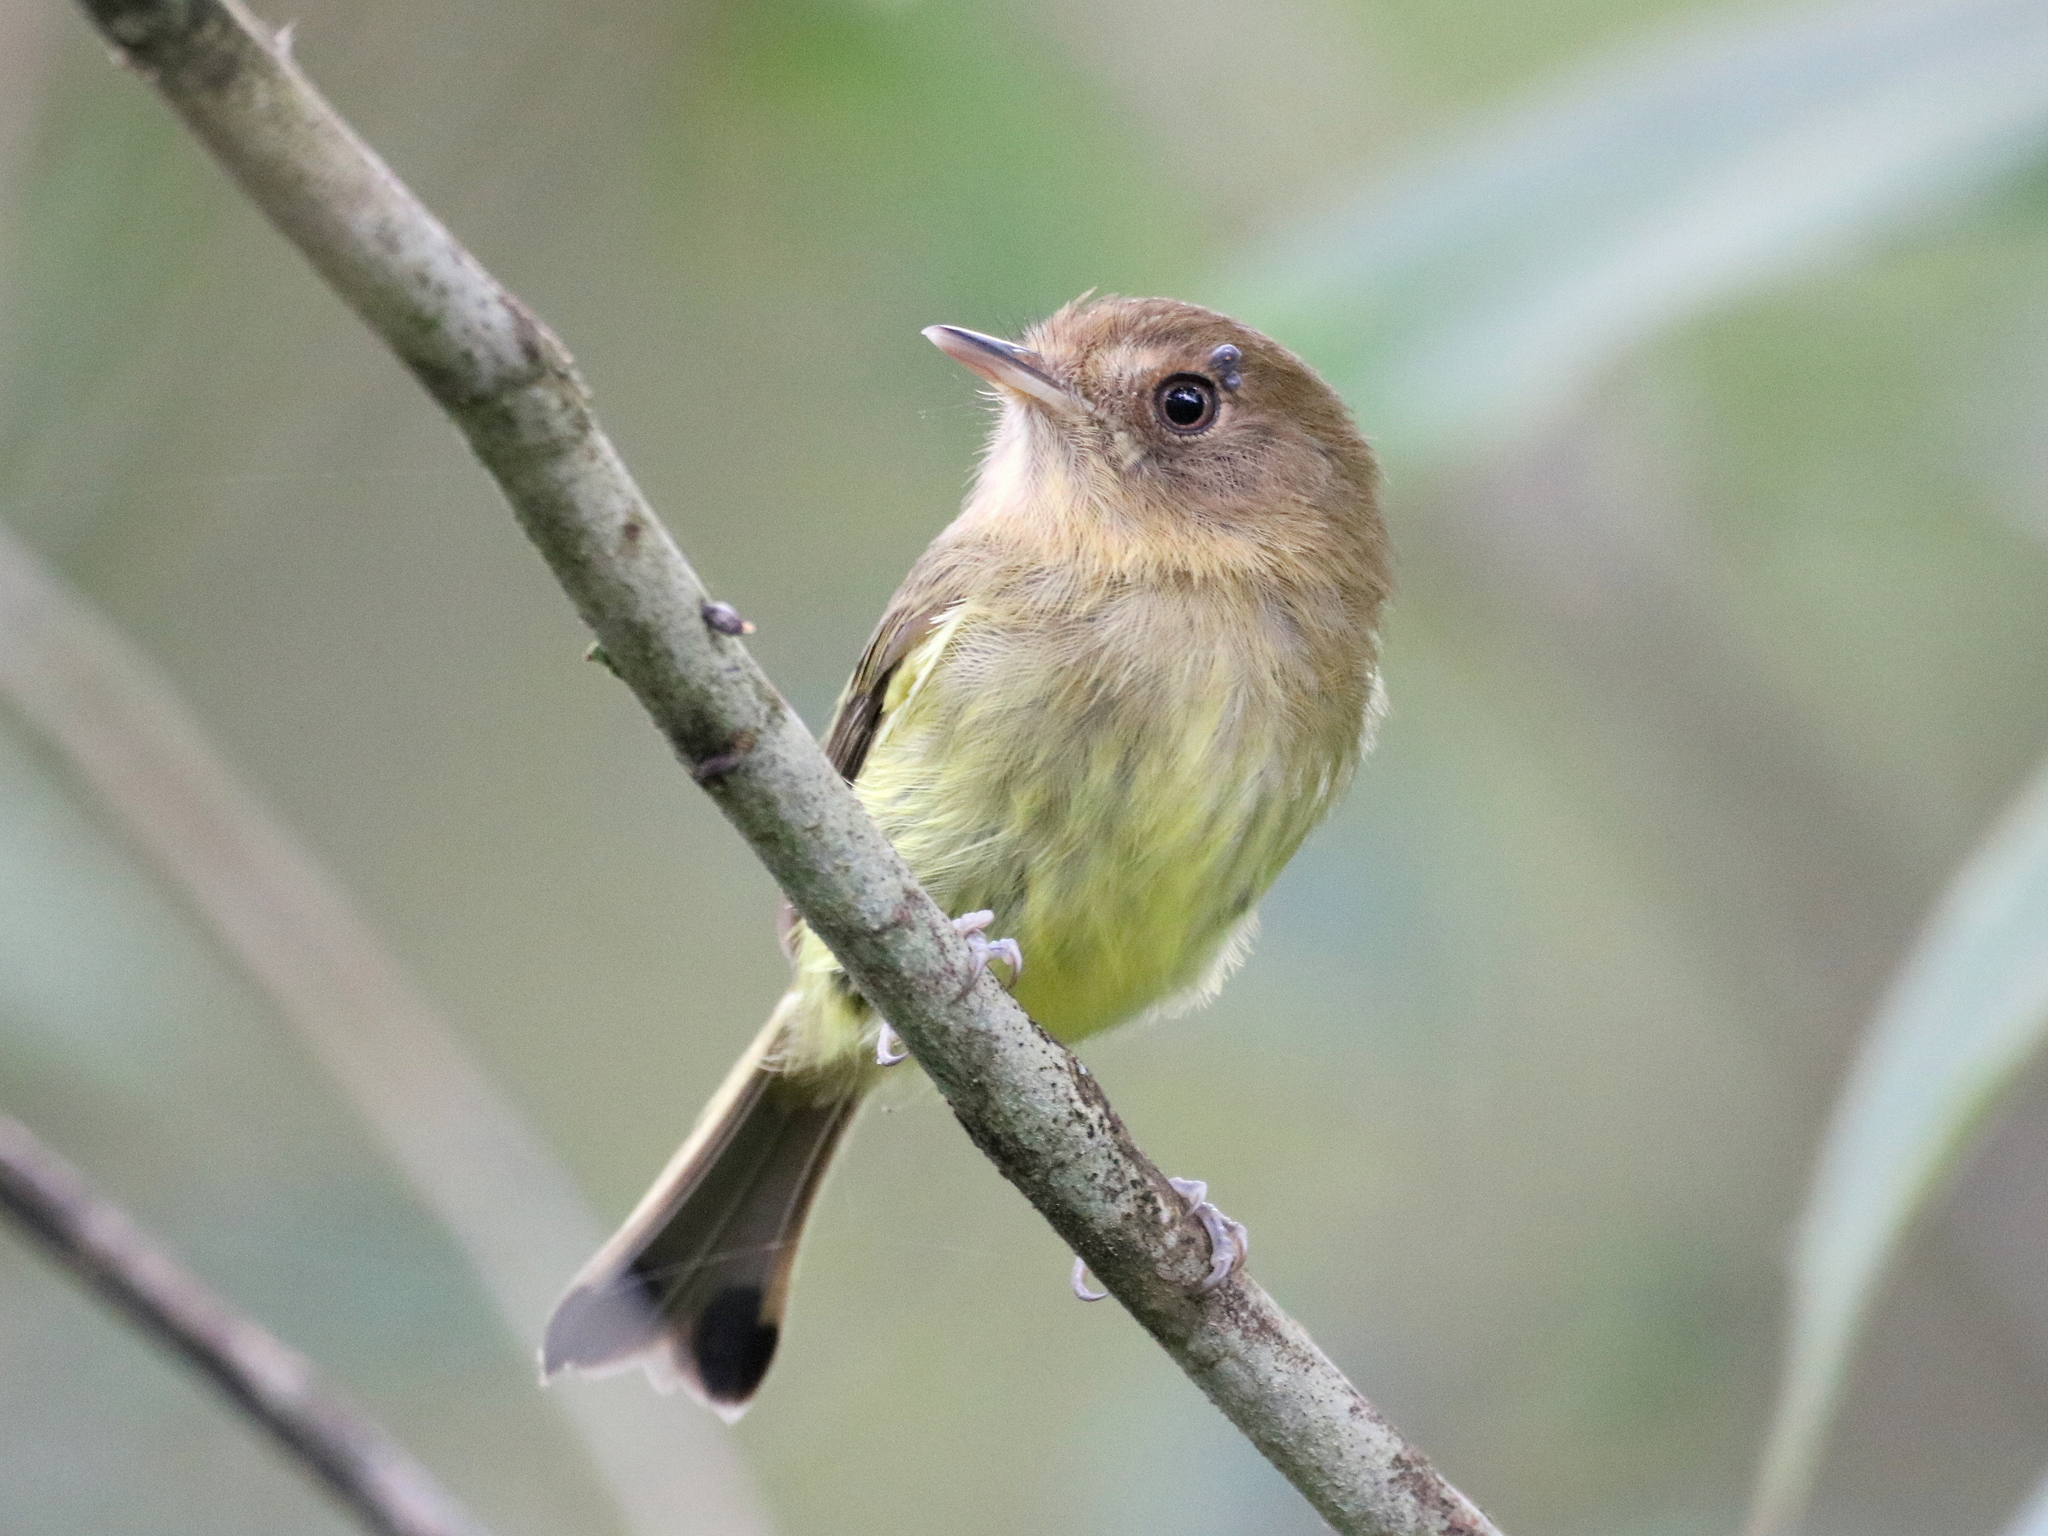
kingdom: Animalia
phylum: Chordata
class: Aves
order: Passeriformes
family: Tyrannidae
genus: Hemitriccus
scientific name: Hemitriccus kaempferi
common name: Kaempfer's tody-tyrant
